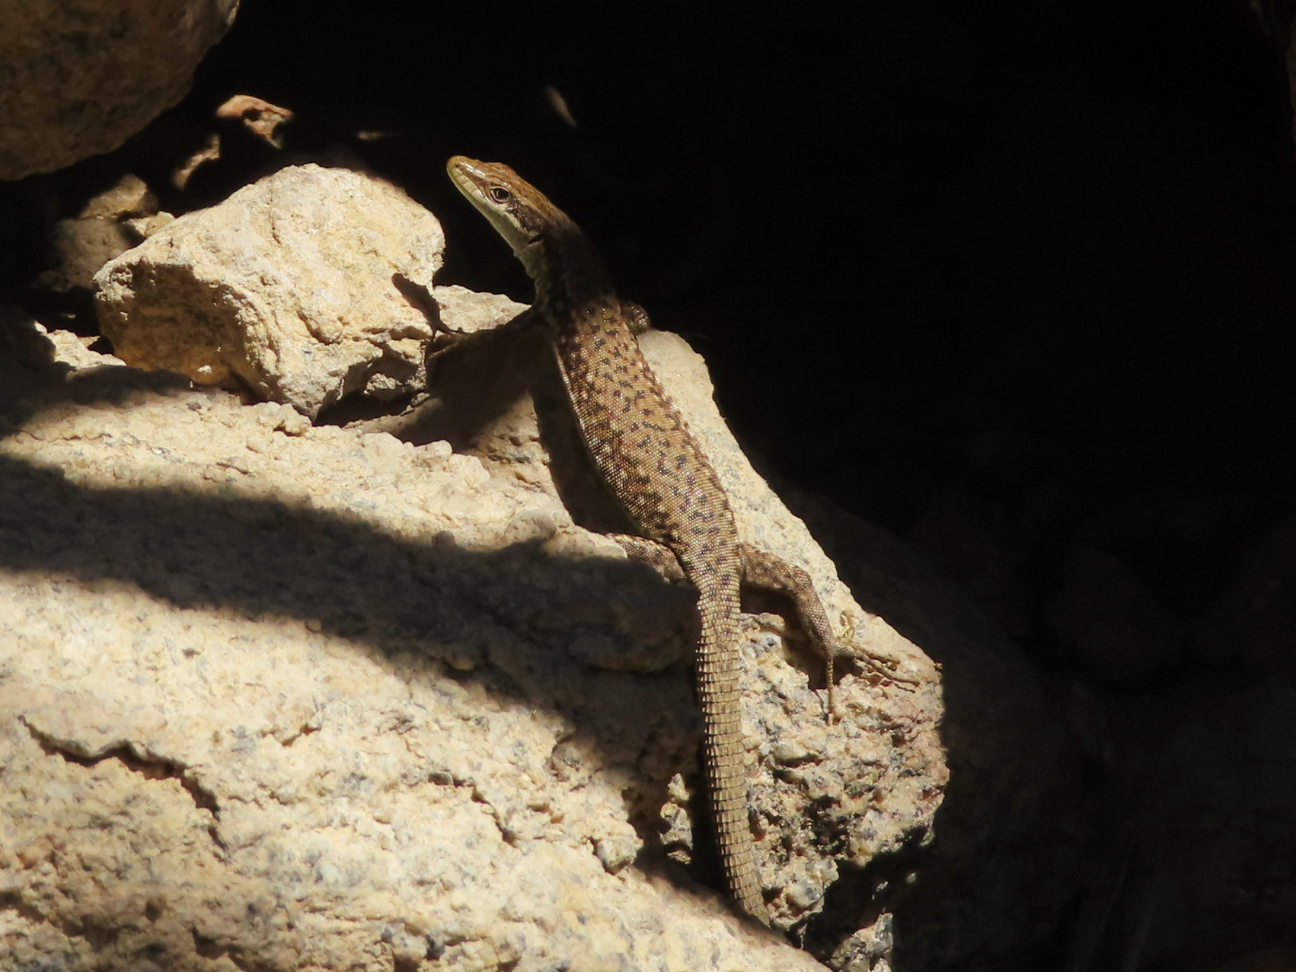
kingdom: Animalia
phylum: Chordata
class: Squamata
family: Lacertidae
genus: Darevskia
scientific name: Darevskia raddei
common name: Radde's lizard
